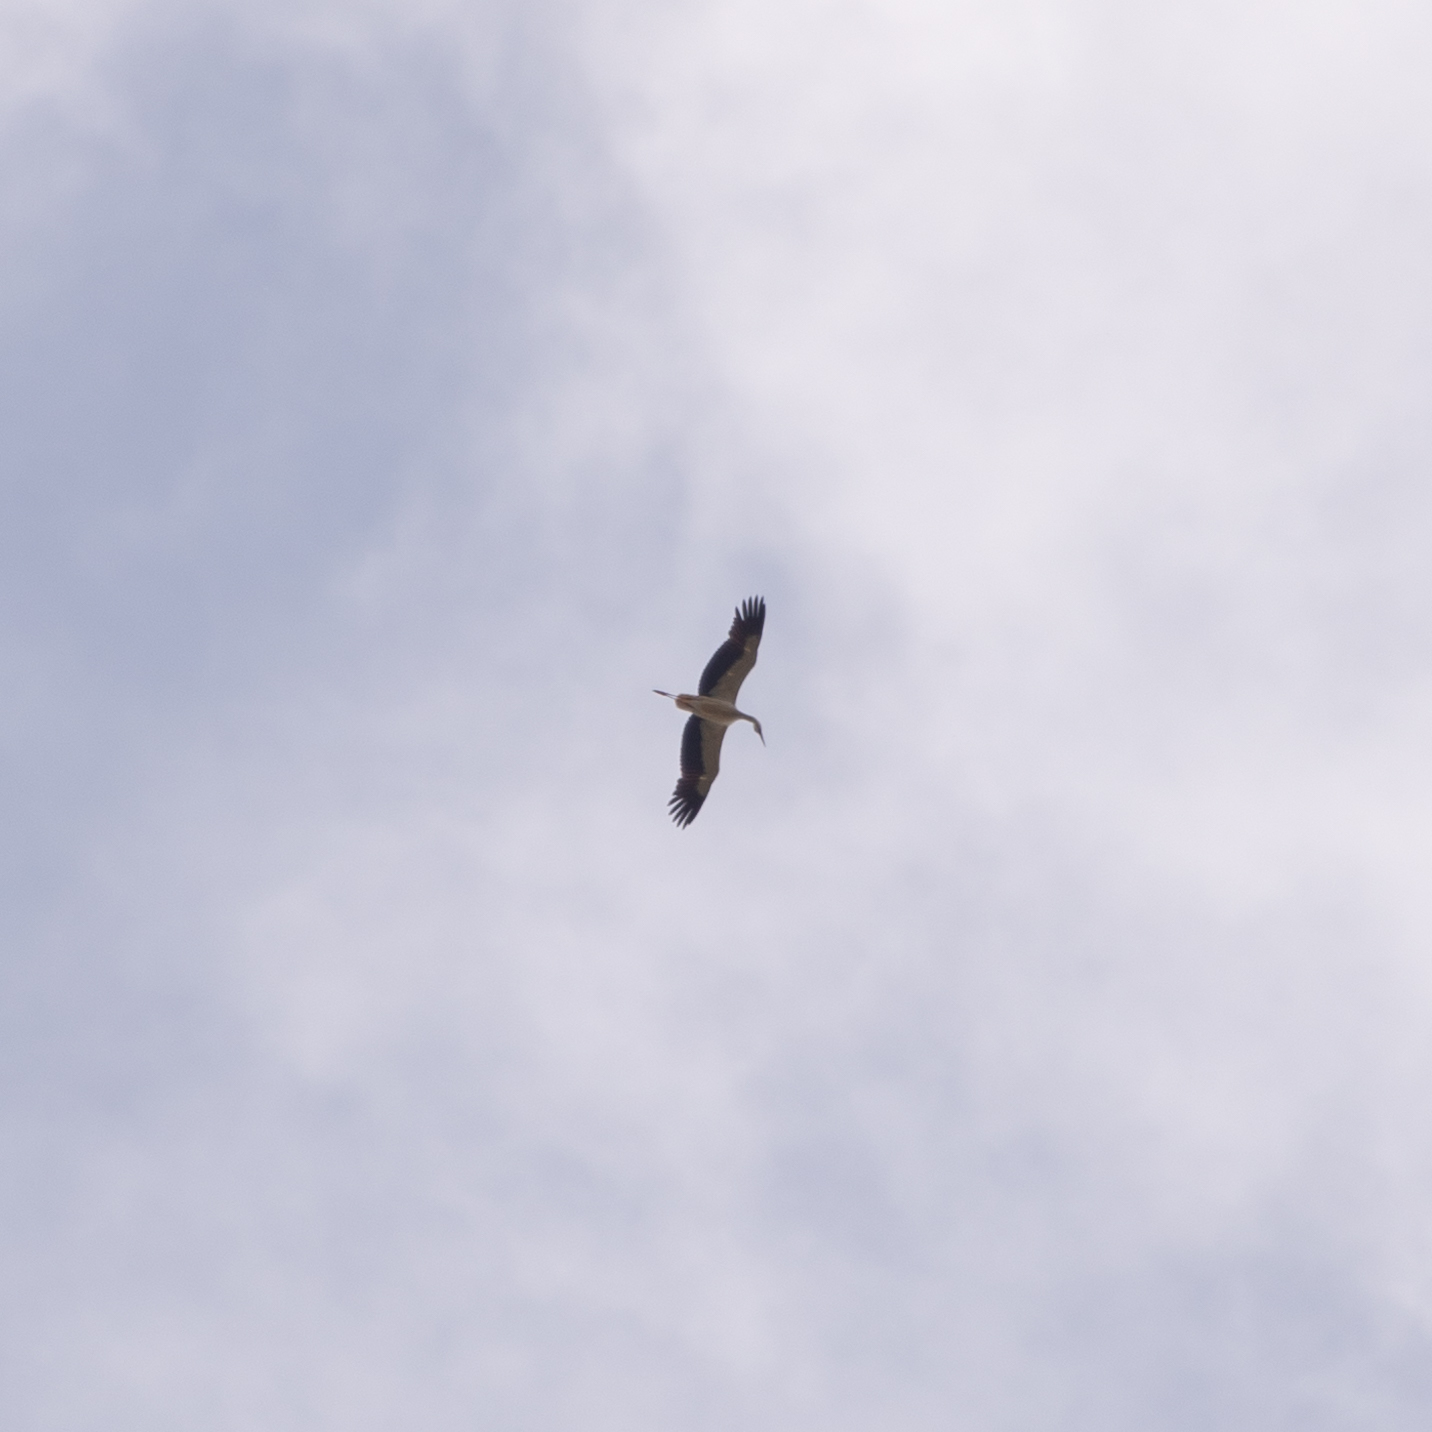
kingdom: Animalia
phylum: Chordata
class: Aves
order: Ciconiiformes
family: Ciconiidae
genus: Ciconia
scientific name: Ciconia ciconia
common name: White stork
